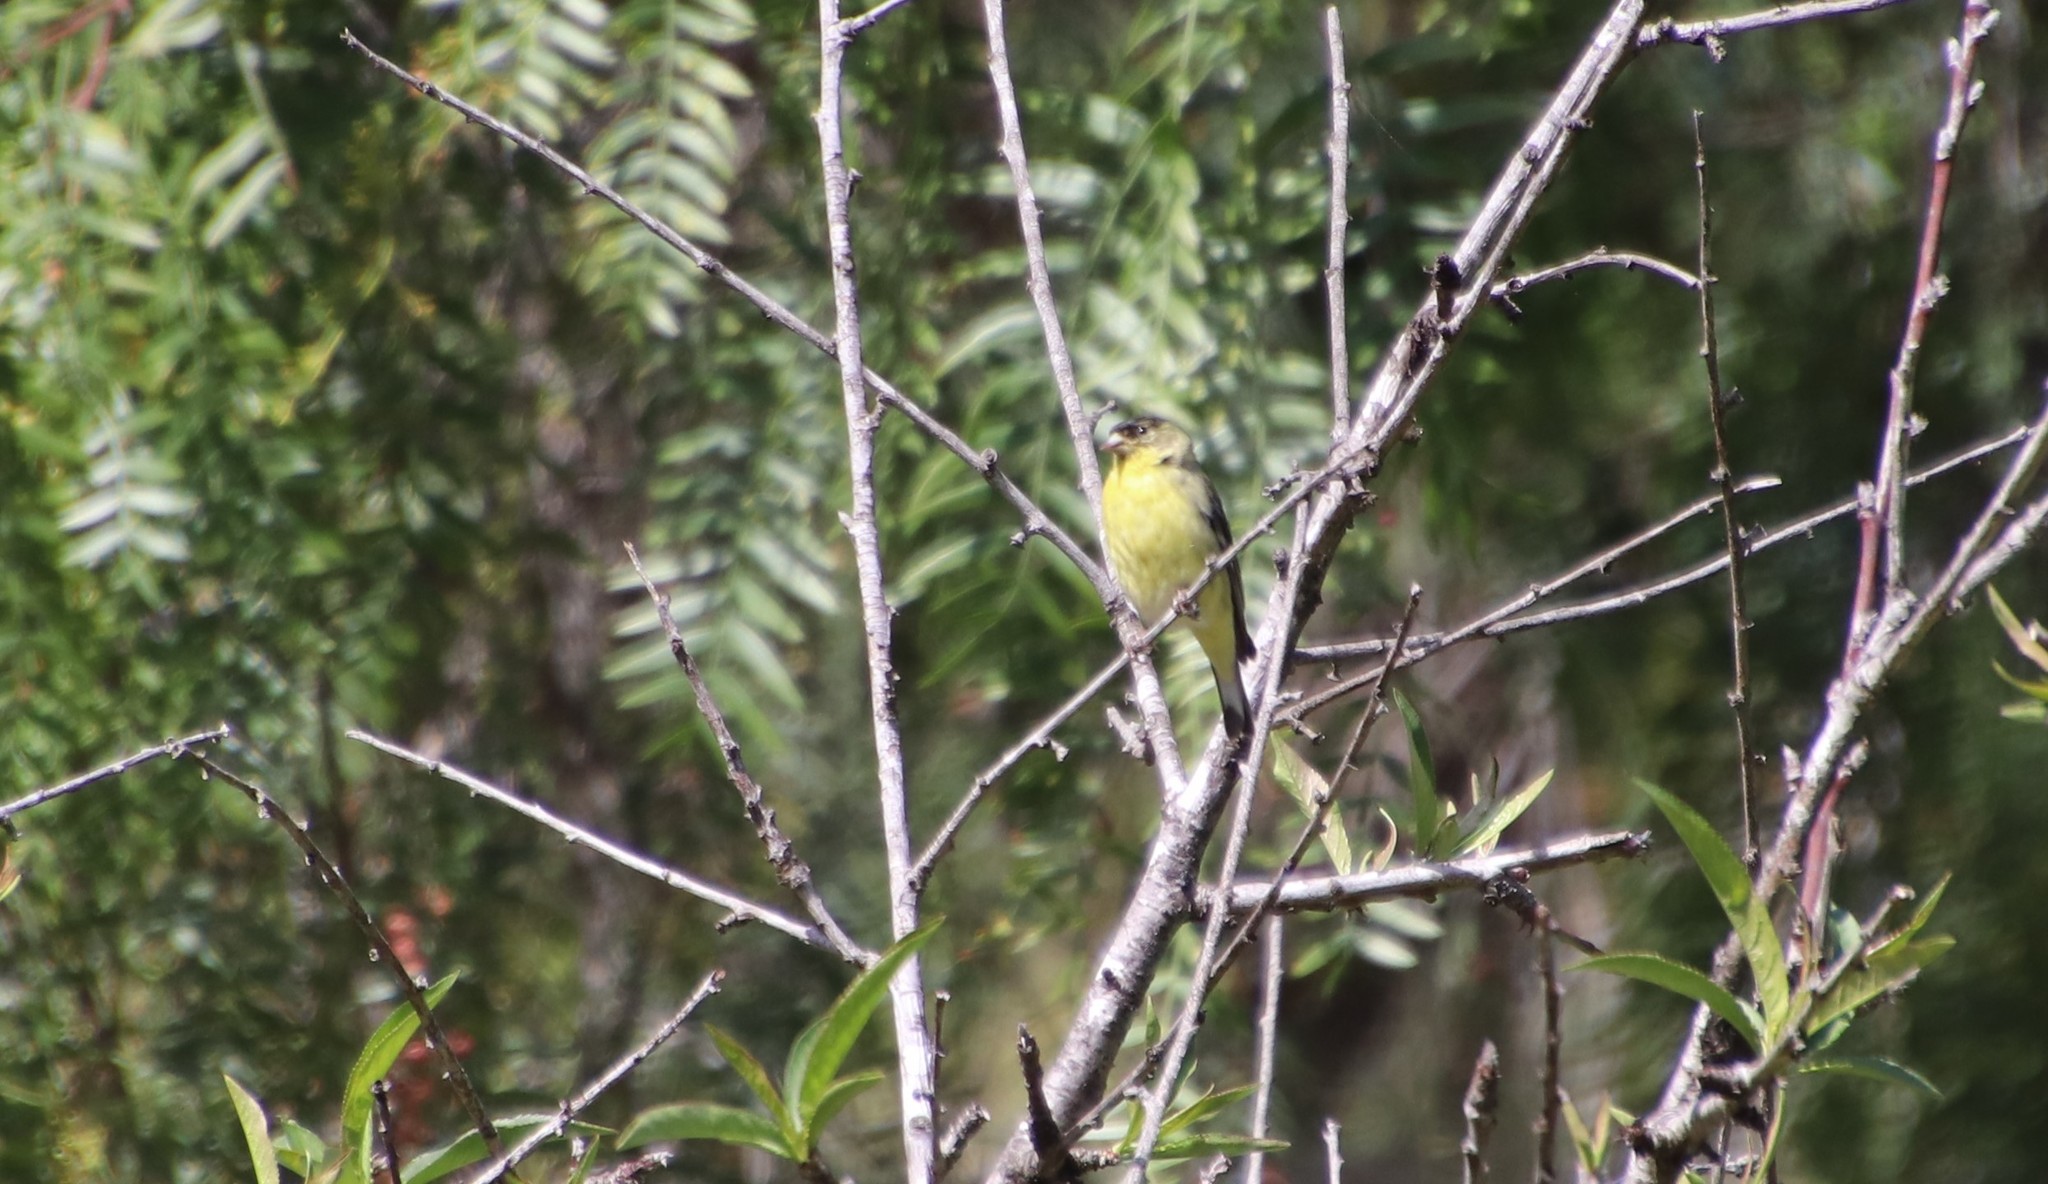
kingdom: Animalia
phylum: Chordata
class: Aves
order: Passeriformes
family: Fringillidae
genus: Spinus
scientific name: Spinus psaltria
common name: Lesser goldfinch
